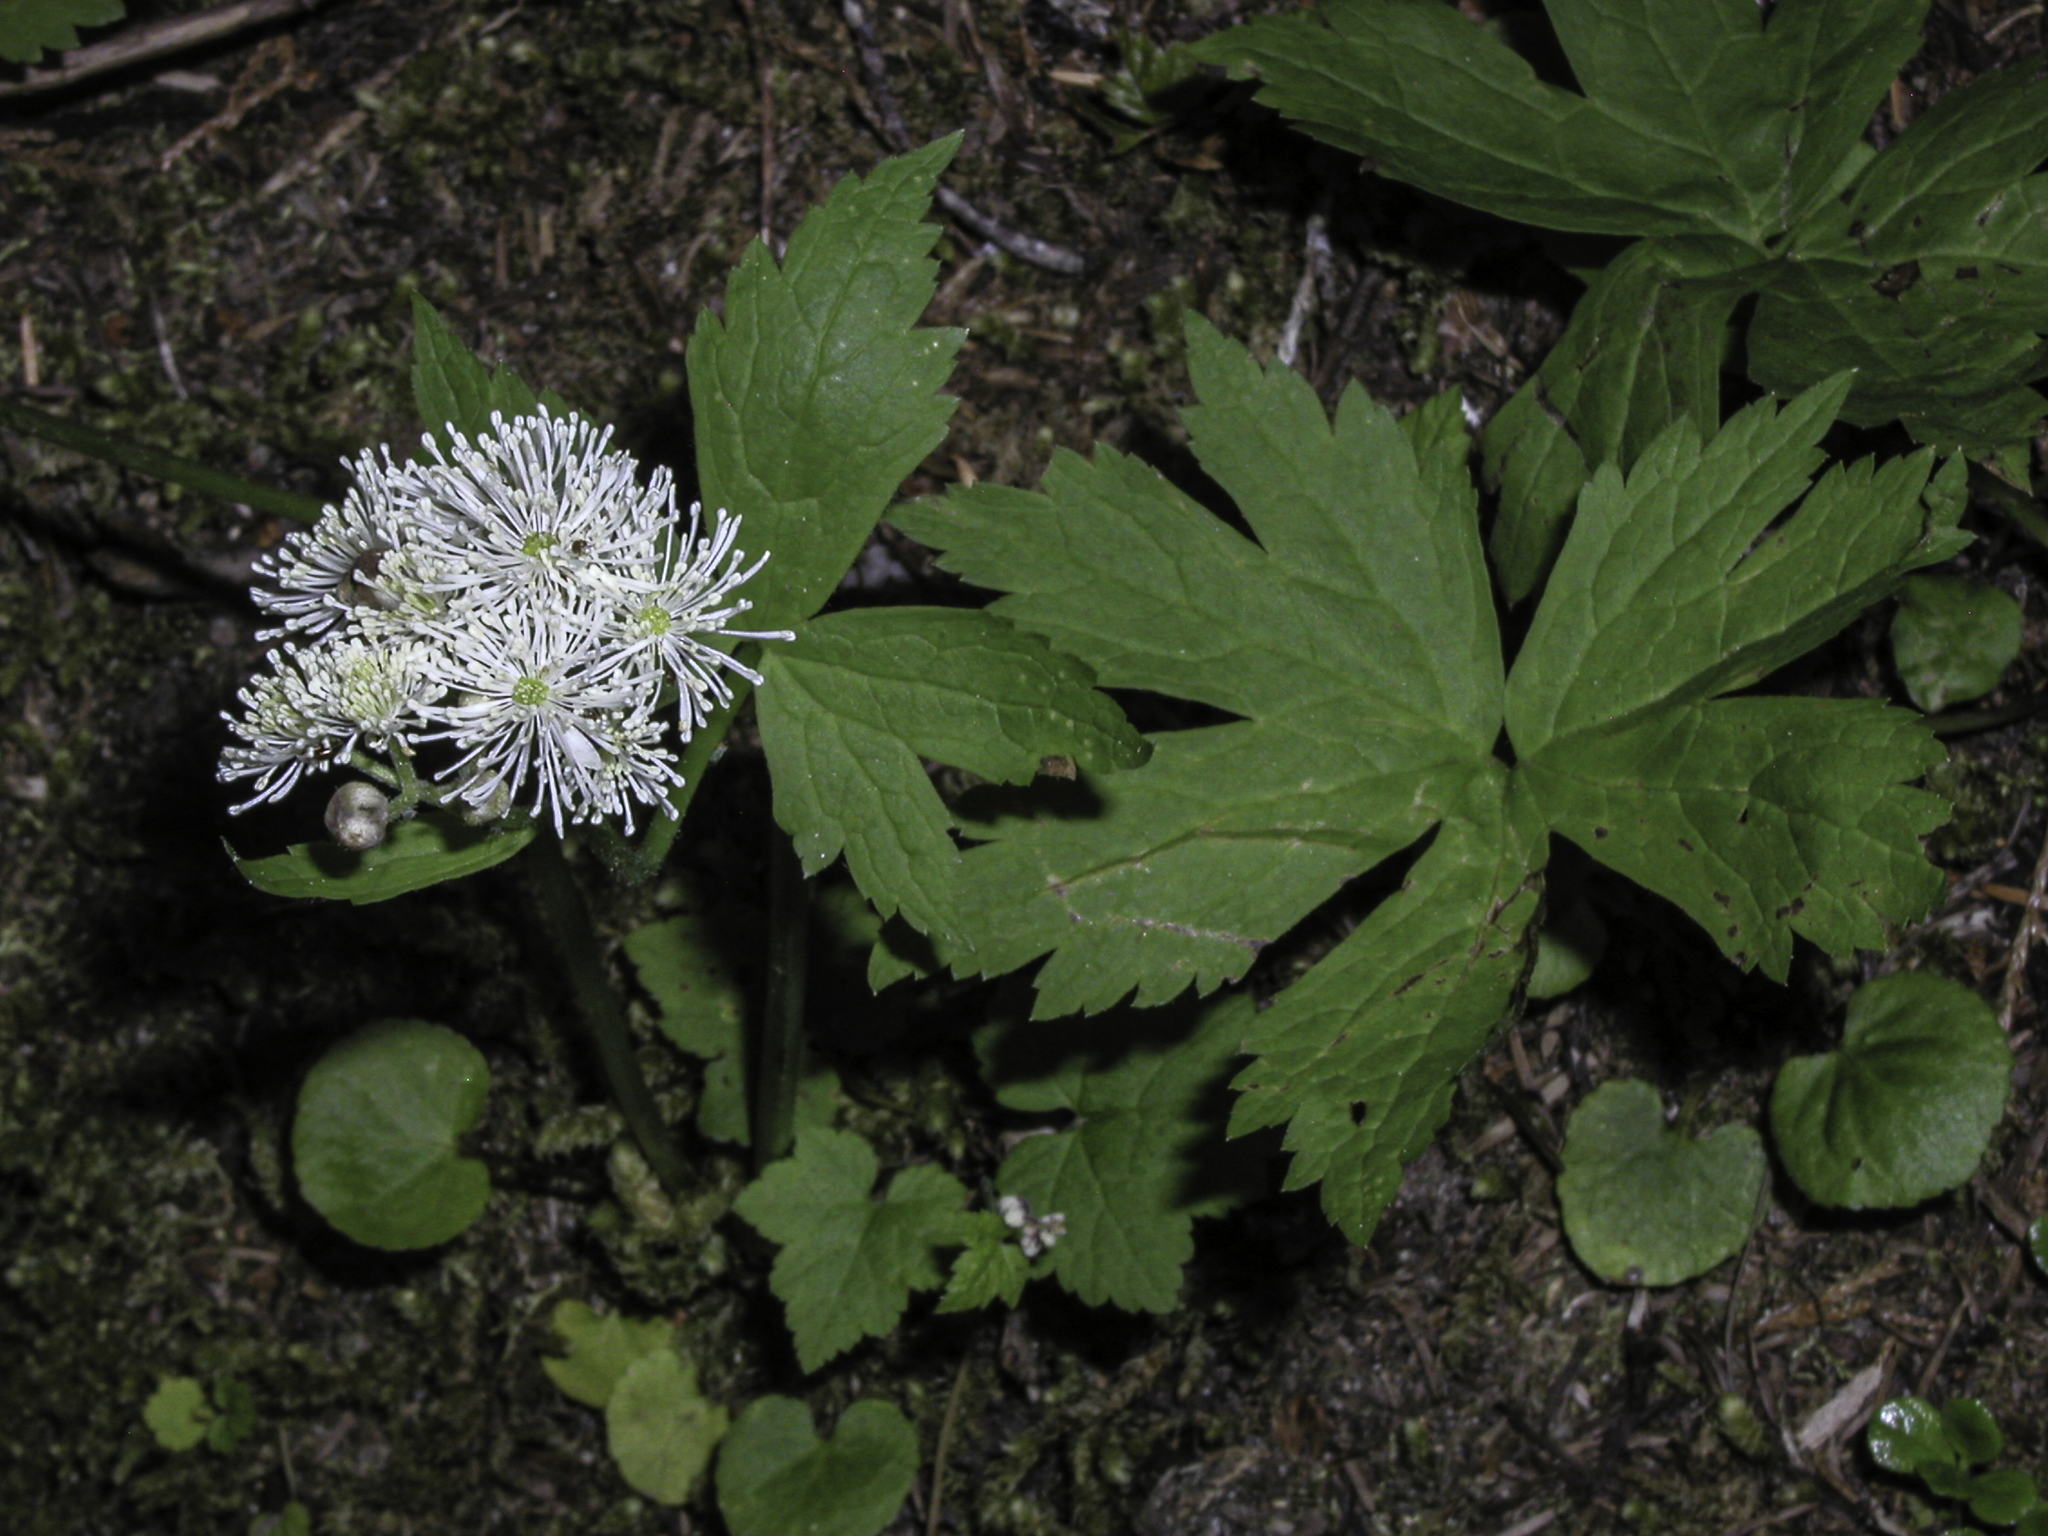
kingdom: Plantae
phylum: Tracheophyta
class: Magnoliopsida
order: Ranunculales
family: Ranunculaceae
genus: Trautvetteria
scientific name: Trautvetteria carolinensis
